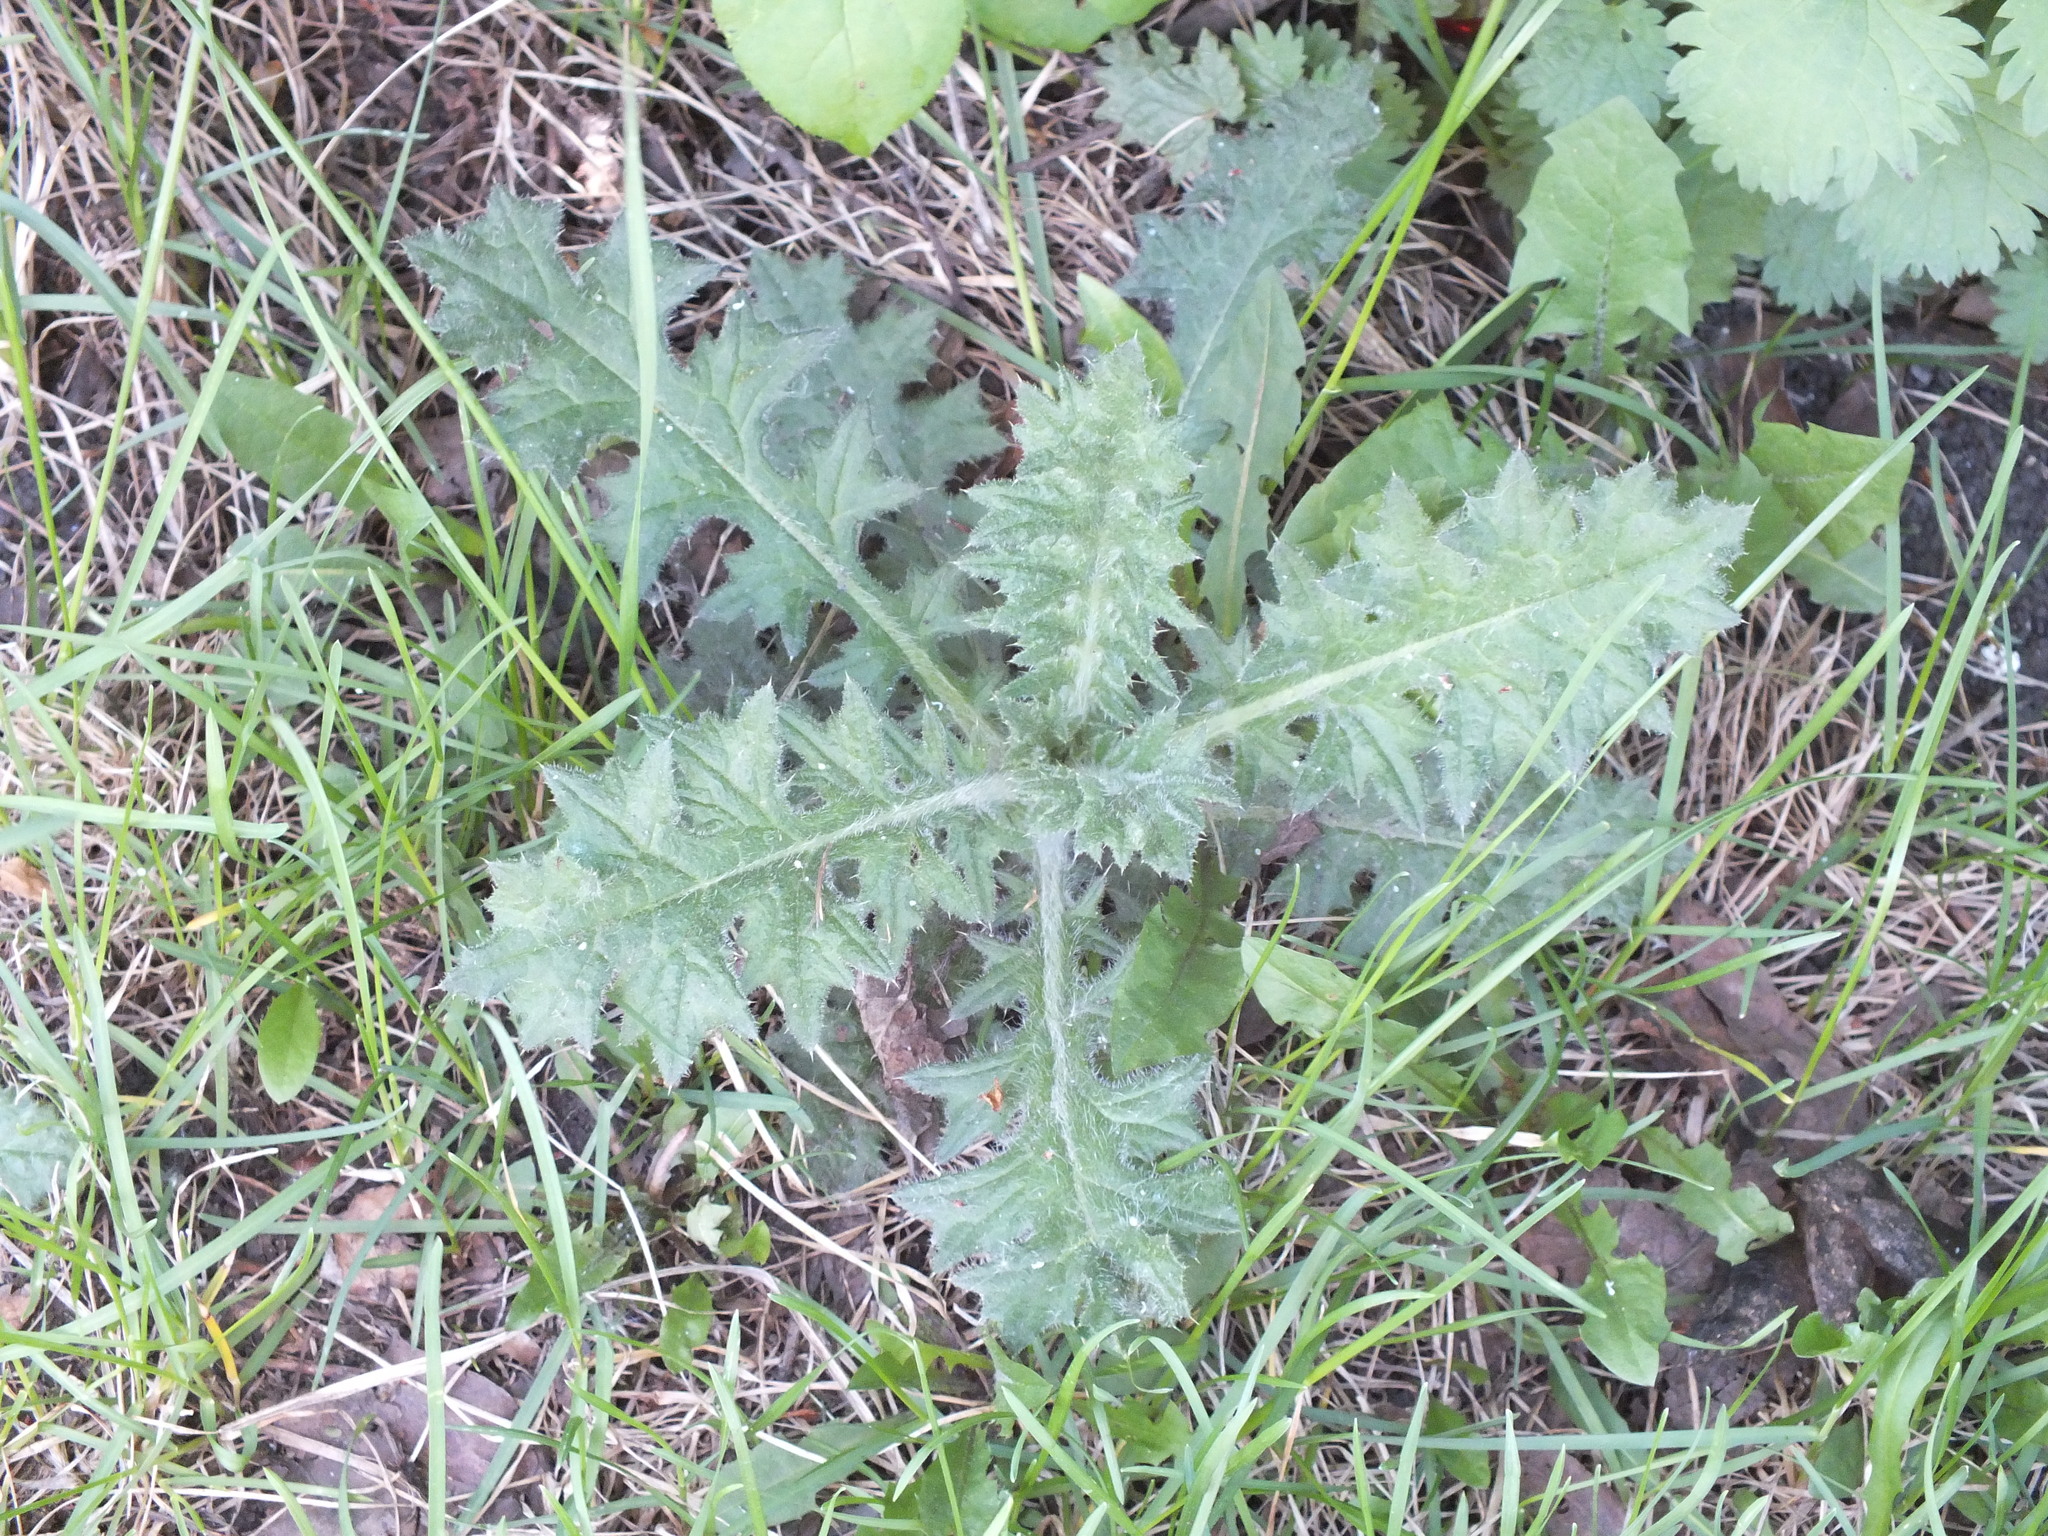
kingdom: Plantae
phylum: Tracheophyta
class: Magnoliopsida
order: Asterales
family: Asteraceae
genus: Cirsium
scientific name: Cirsium vulgare
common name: Bull thistle
